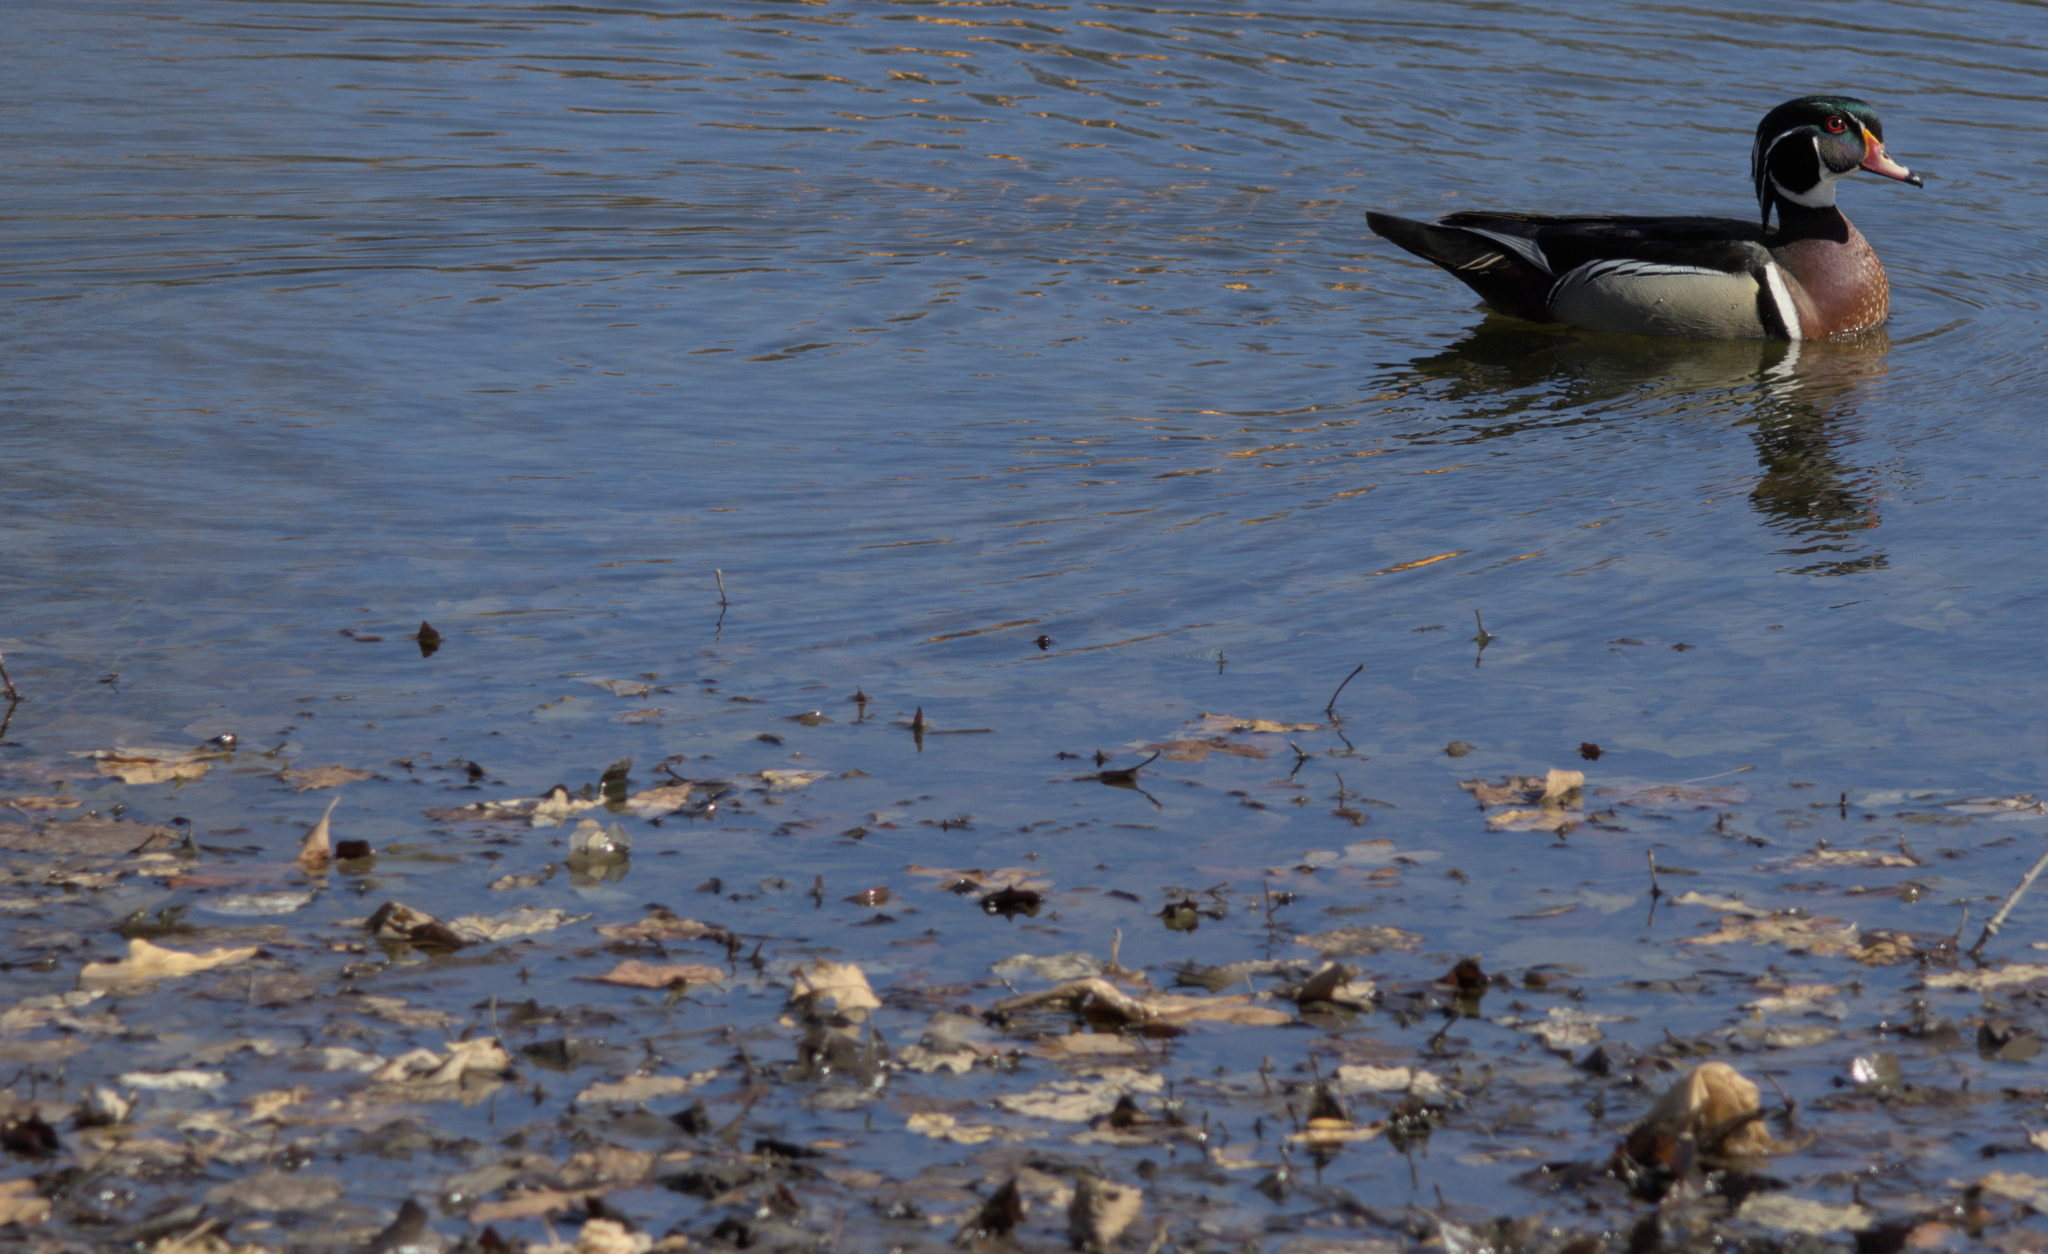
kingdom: Animalia
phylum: Chordata
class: Aves
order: Anseriformes
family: Anatidae
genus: Aix
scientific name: Aix sponsa
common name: Wood duck
